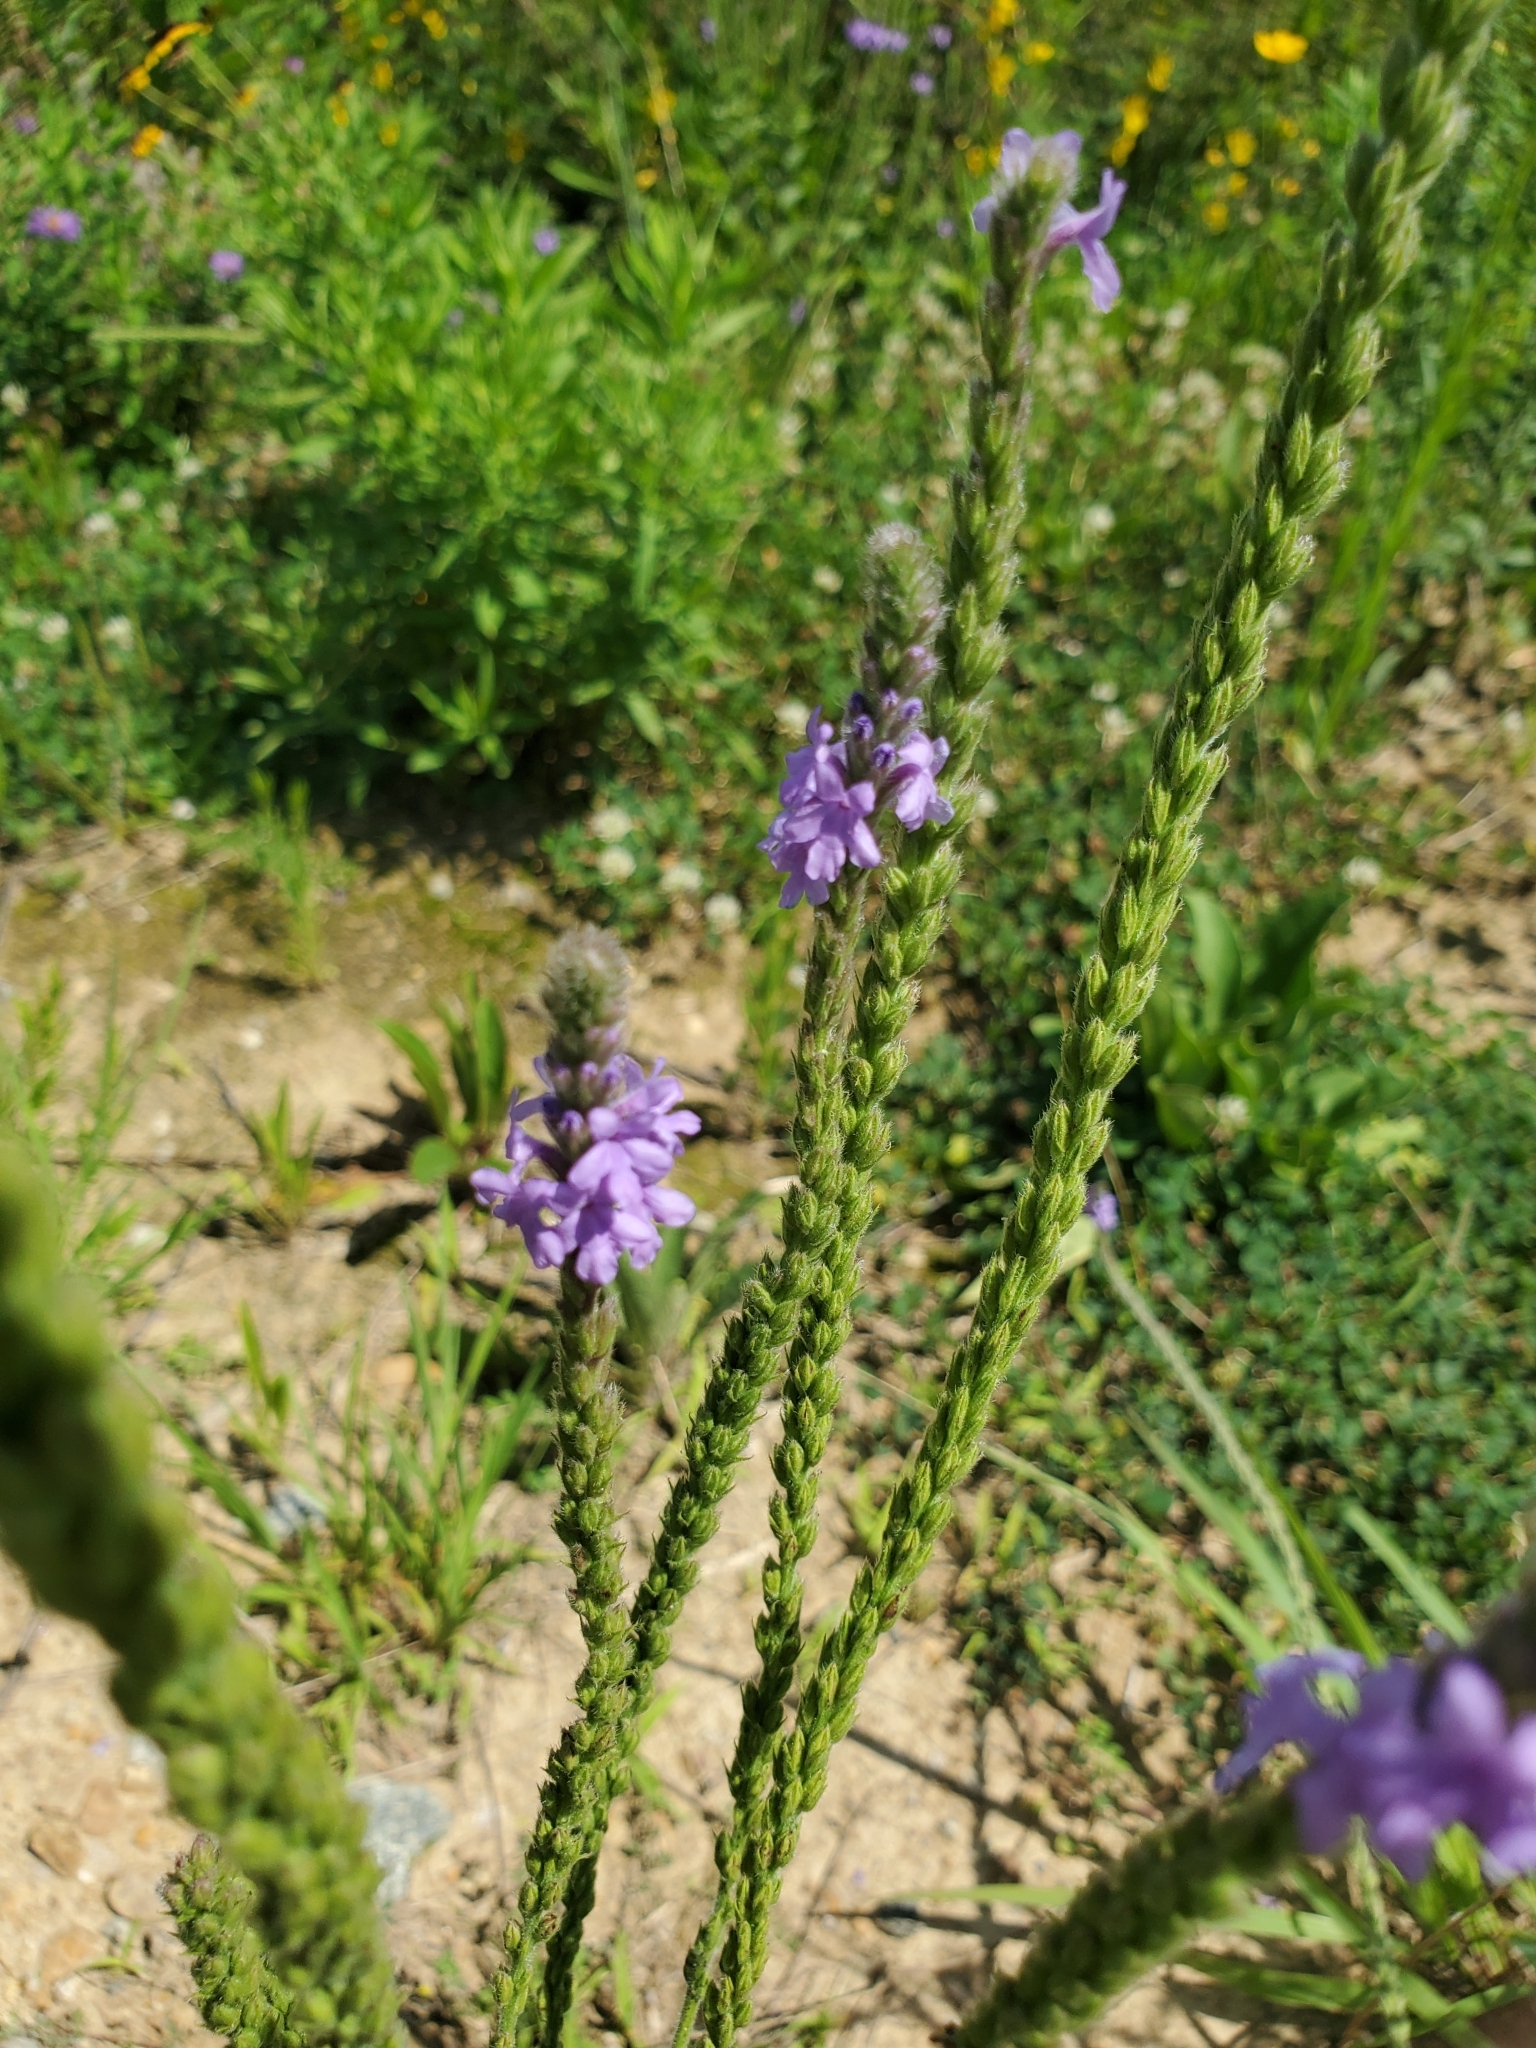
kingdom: Plantae
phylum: Tracheophyta
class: Magnoliopsida
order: Lamiales
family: Verbenaceae
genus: Verbena
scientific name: Verbena stricta
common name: Hoary vervain
